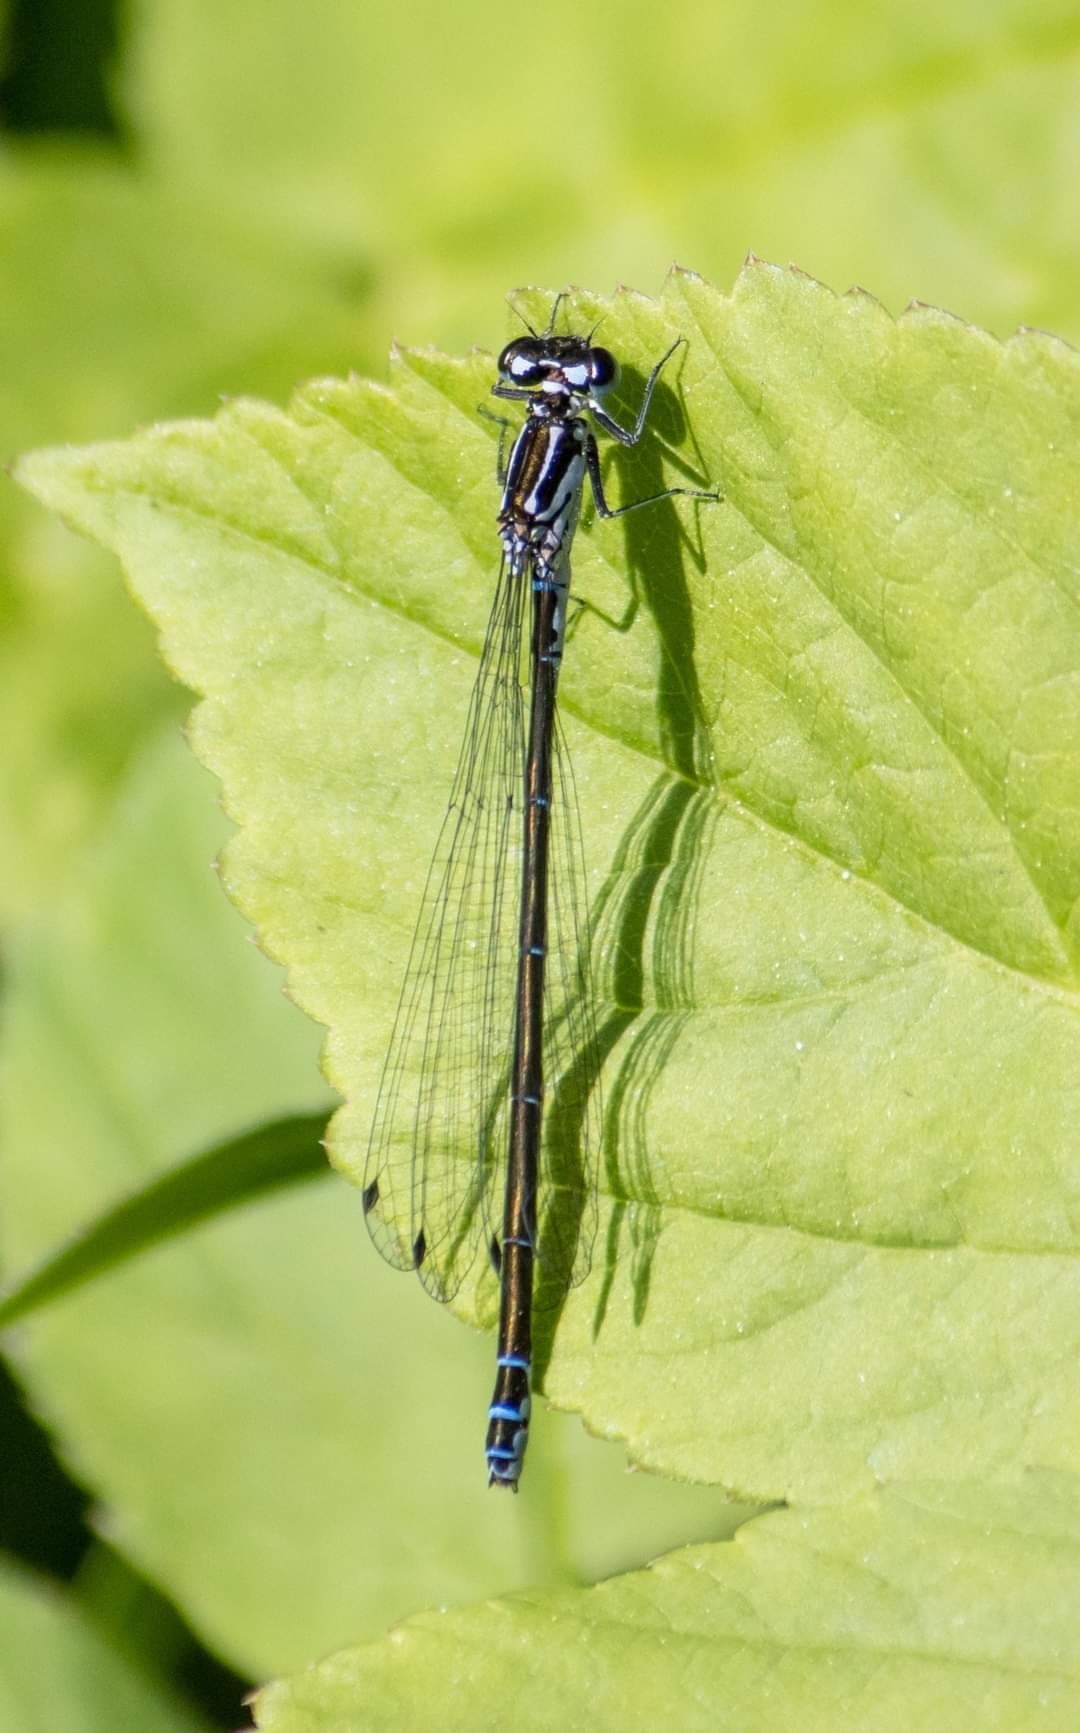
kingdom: Animalia
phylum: Arthropoda
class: Insecta
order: Odonata
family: Coenagrionidae
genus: Coenagrion
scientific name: Coenagrion pulchellum
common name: Variable bluet
